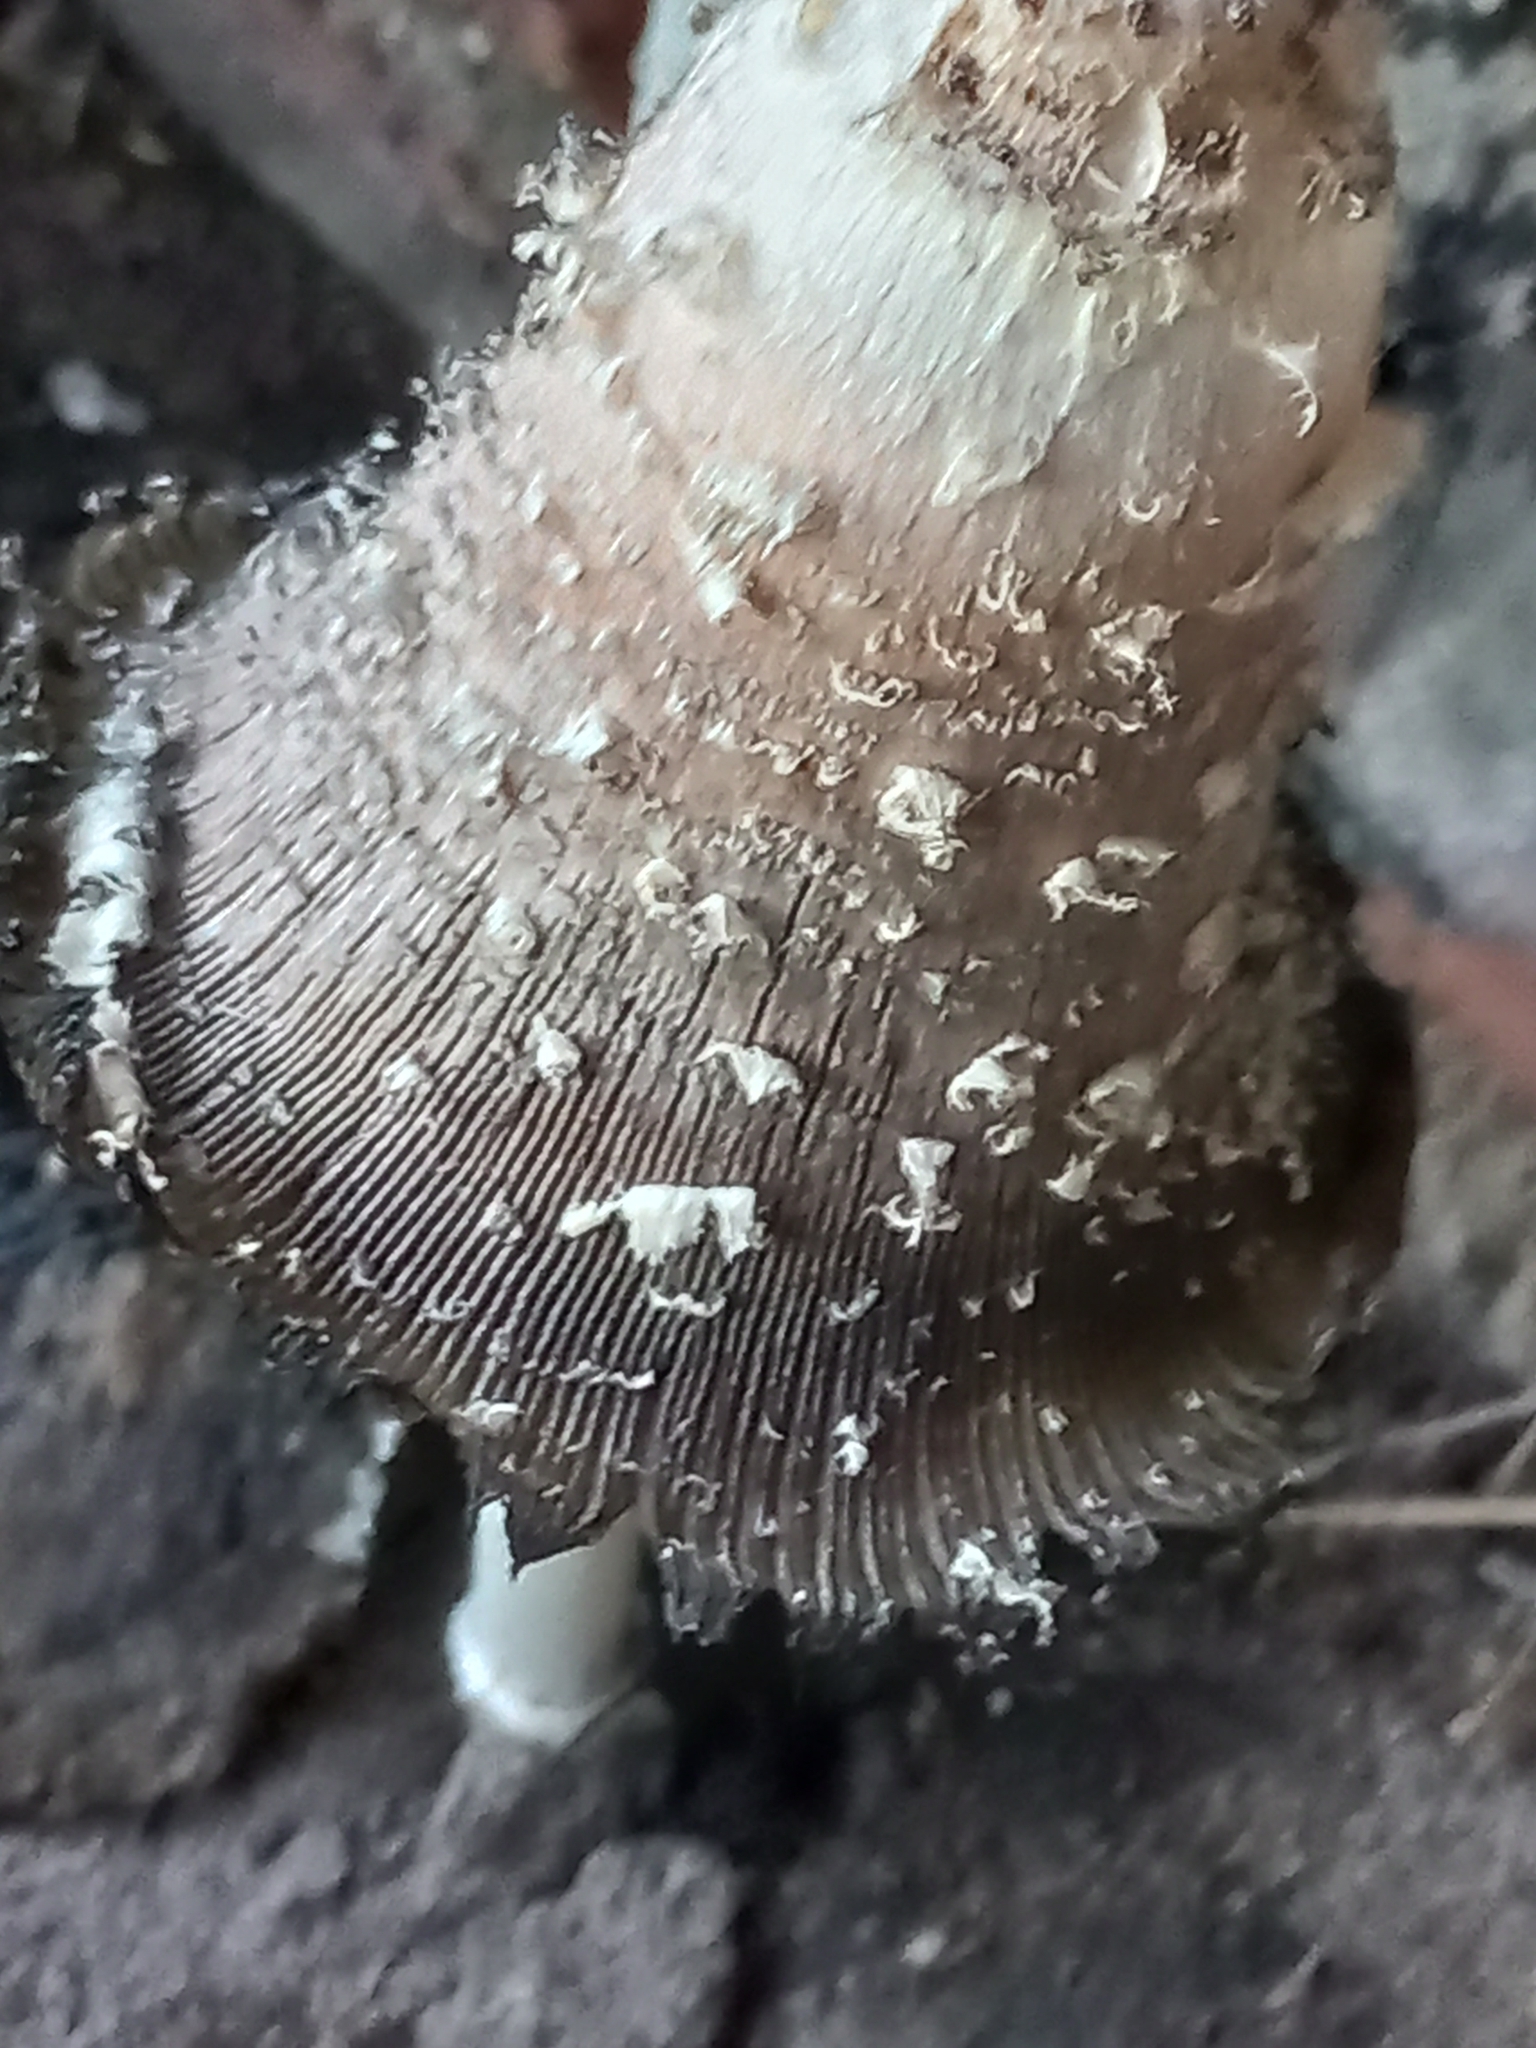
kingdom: Fungi
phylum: Basidiomycota
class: Agaricomycetes
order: Agaricales
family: Agaricaceae
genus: Coprinus
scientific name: Coprinus comatus
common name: Lawyer's wig
